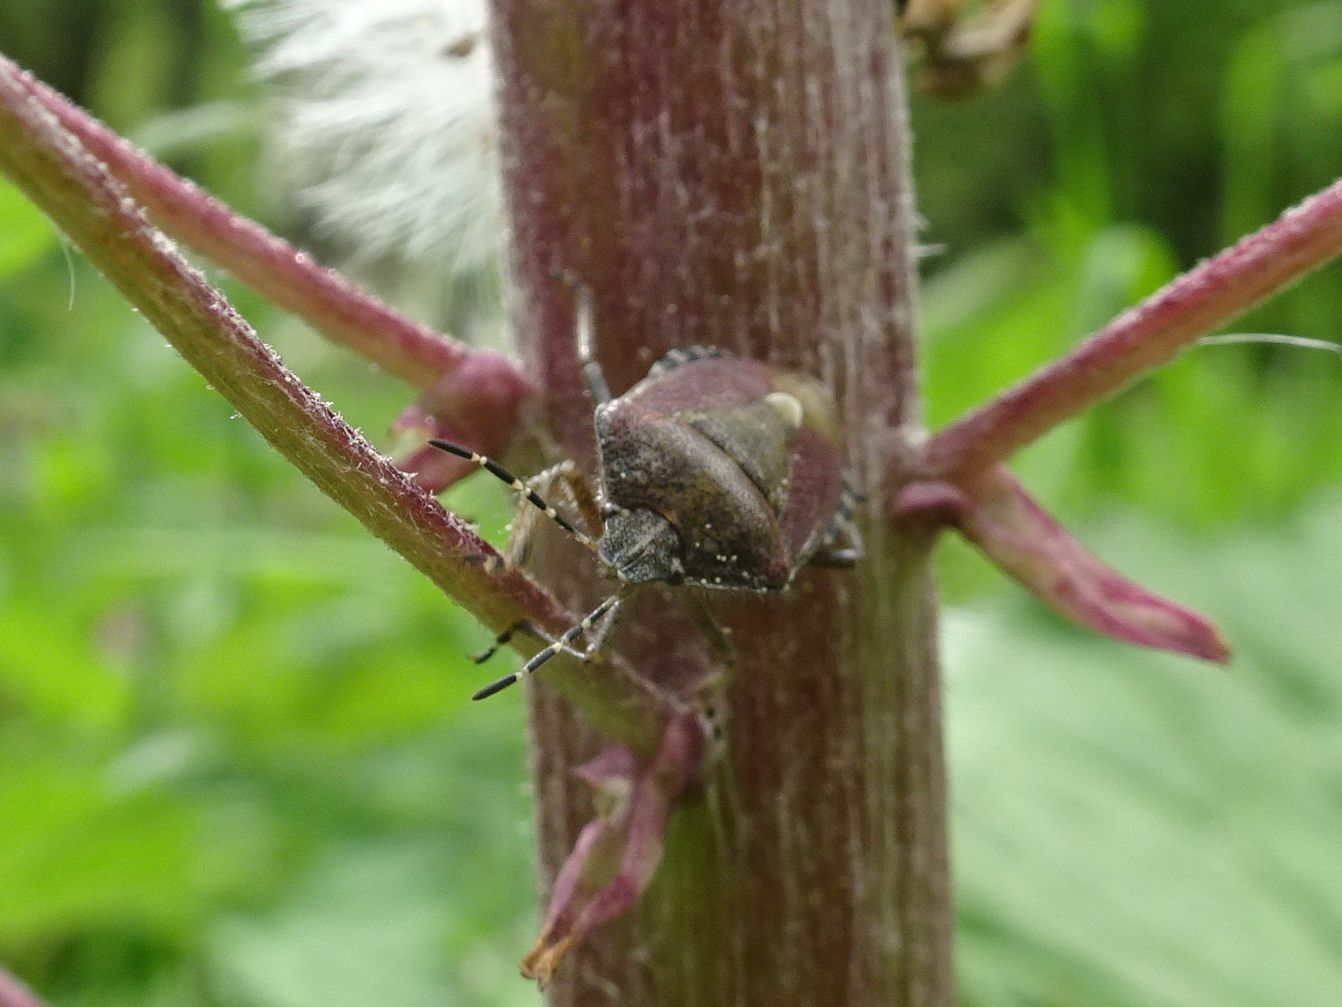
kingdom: Animalia
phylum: Arthropoda
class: Insecta
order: Hemiptera
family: Pentatomidae
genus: Dolycoris
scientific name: Dolycoris baccarum
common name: Sloe bug
